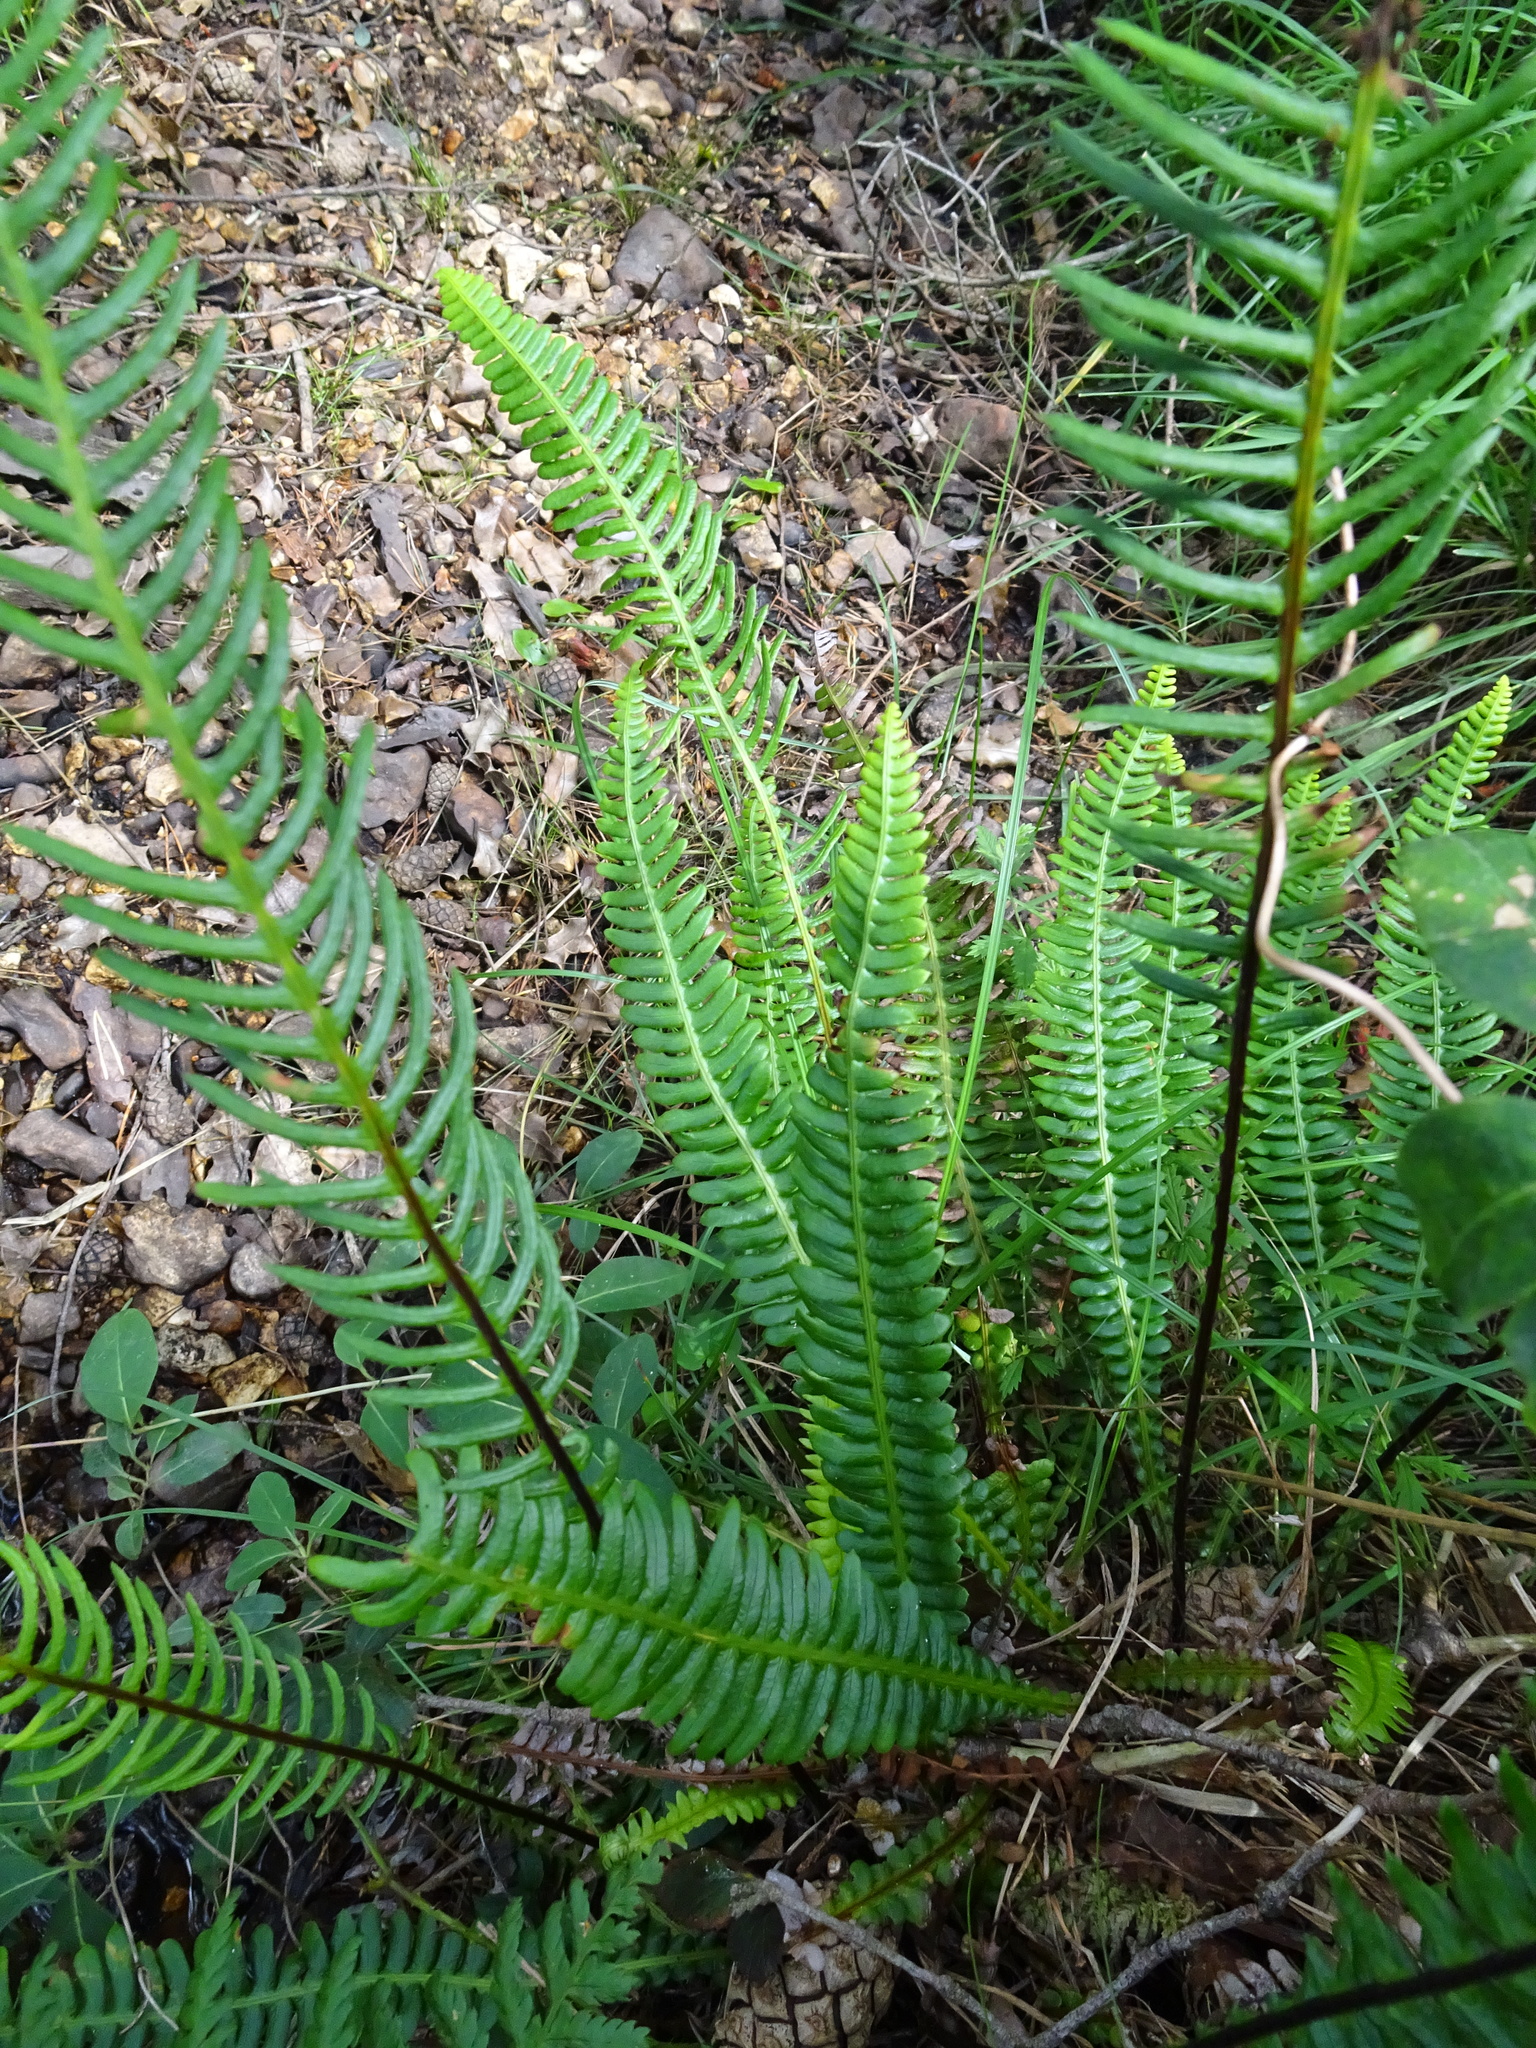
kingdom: Plantae
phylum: Tracheophyta
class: Polypodiopsida
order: Polypodiales
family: Blechnaceae
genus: Struthiopteris
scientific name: Struthiopteris spicant
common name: Deer fern
